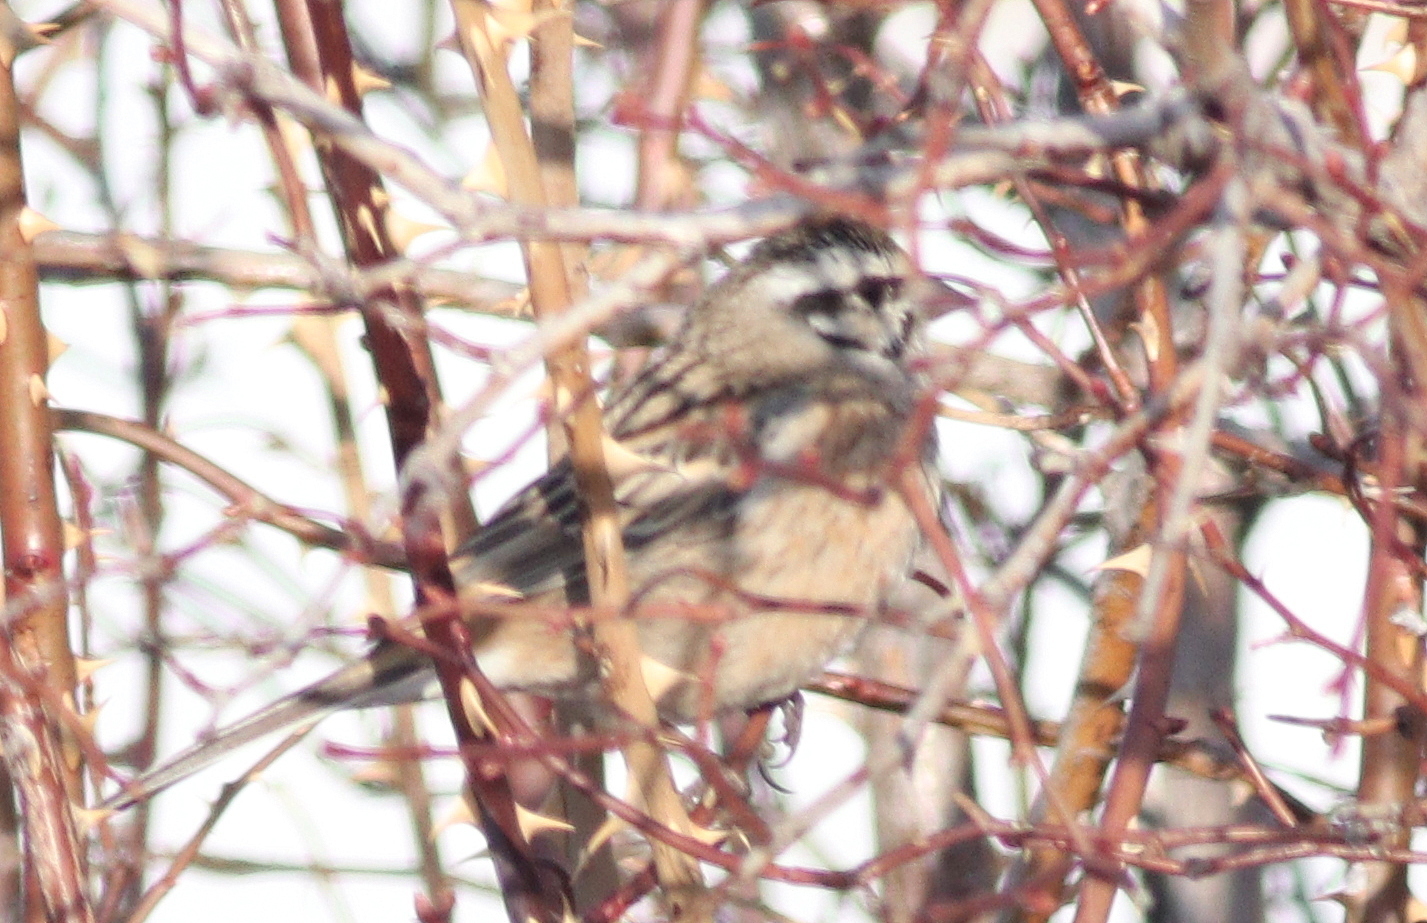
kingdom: Animalia
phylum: Chordata
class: Aves
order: Passeriformes
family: Emberizidae
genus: Emberiza
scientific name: Emberiza cia
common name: Rock bunting
